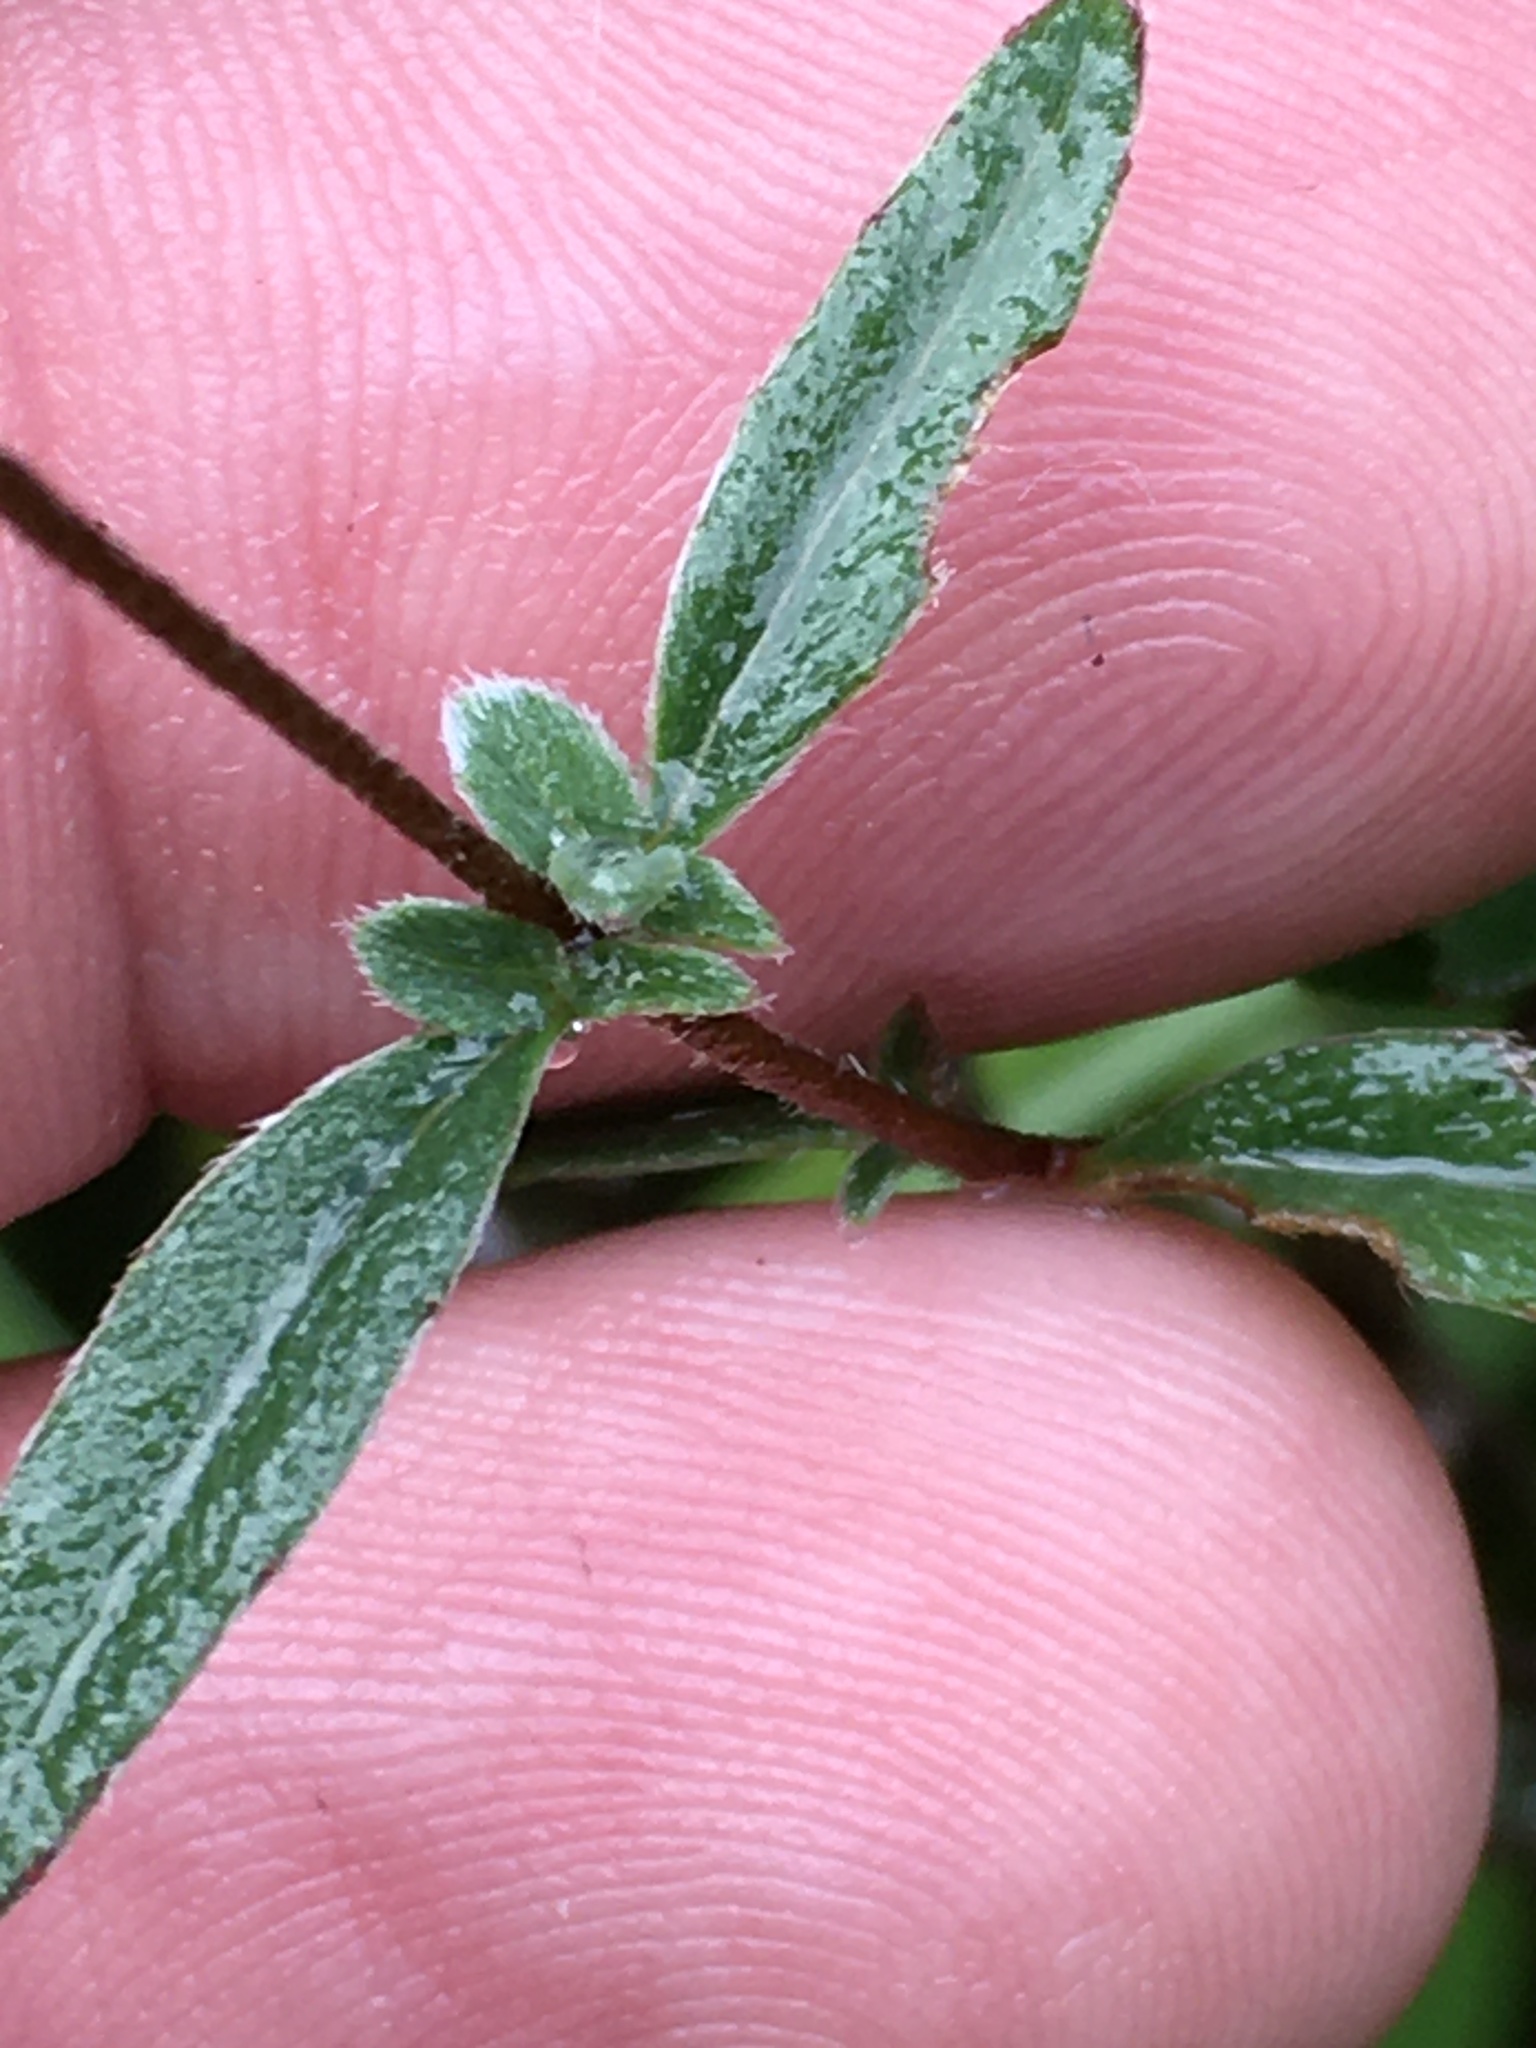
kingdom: Plantae
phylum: Tracheophyta
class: Magnoliopsida
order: Myrtales
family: Onagraceae
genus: Oenothera
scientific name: Oenothera fruticosa
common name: Southern sundrops
